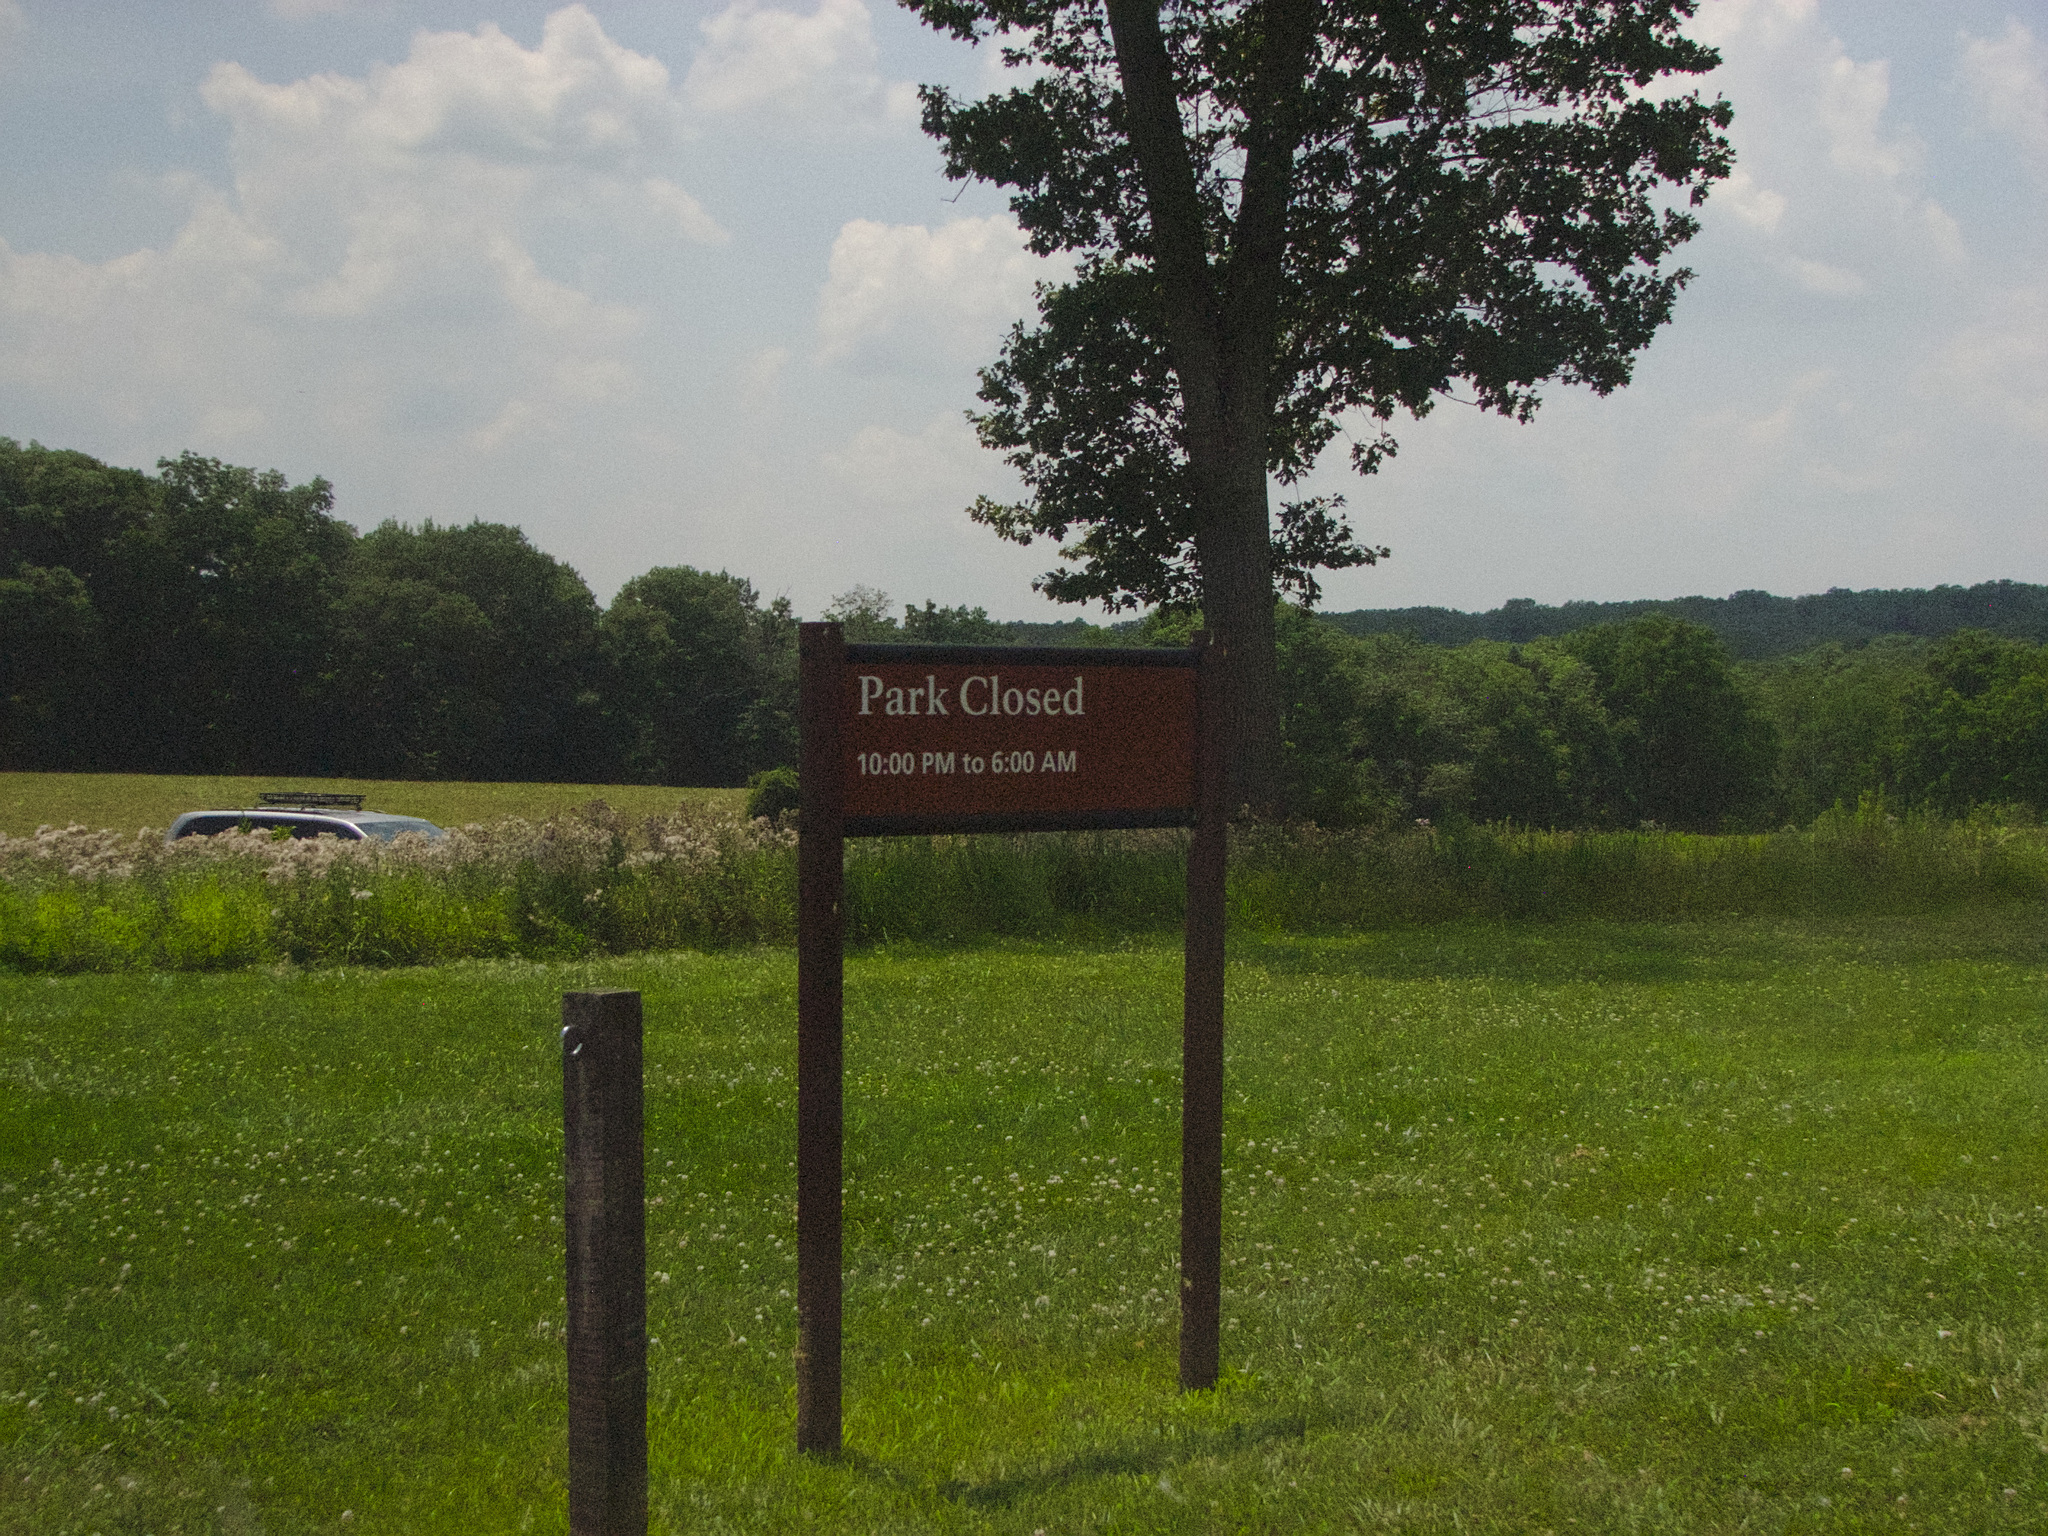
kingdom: Plantae
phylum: Tracheophyta
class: Magnoliopsida
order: Fabales
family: Fabaceae
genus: Trifolium
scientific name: Trifolium repens
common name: White clover
